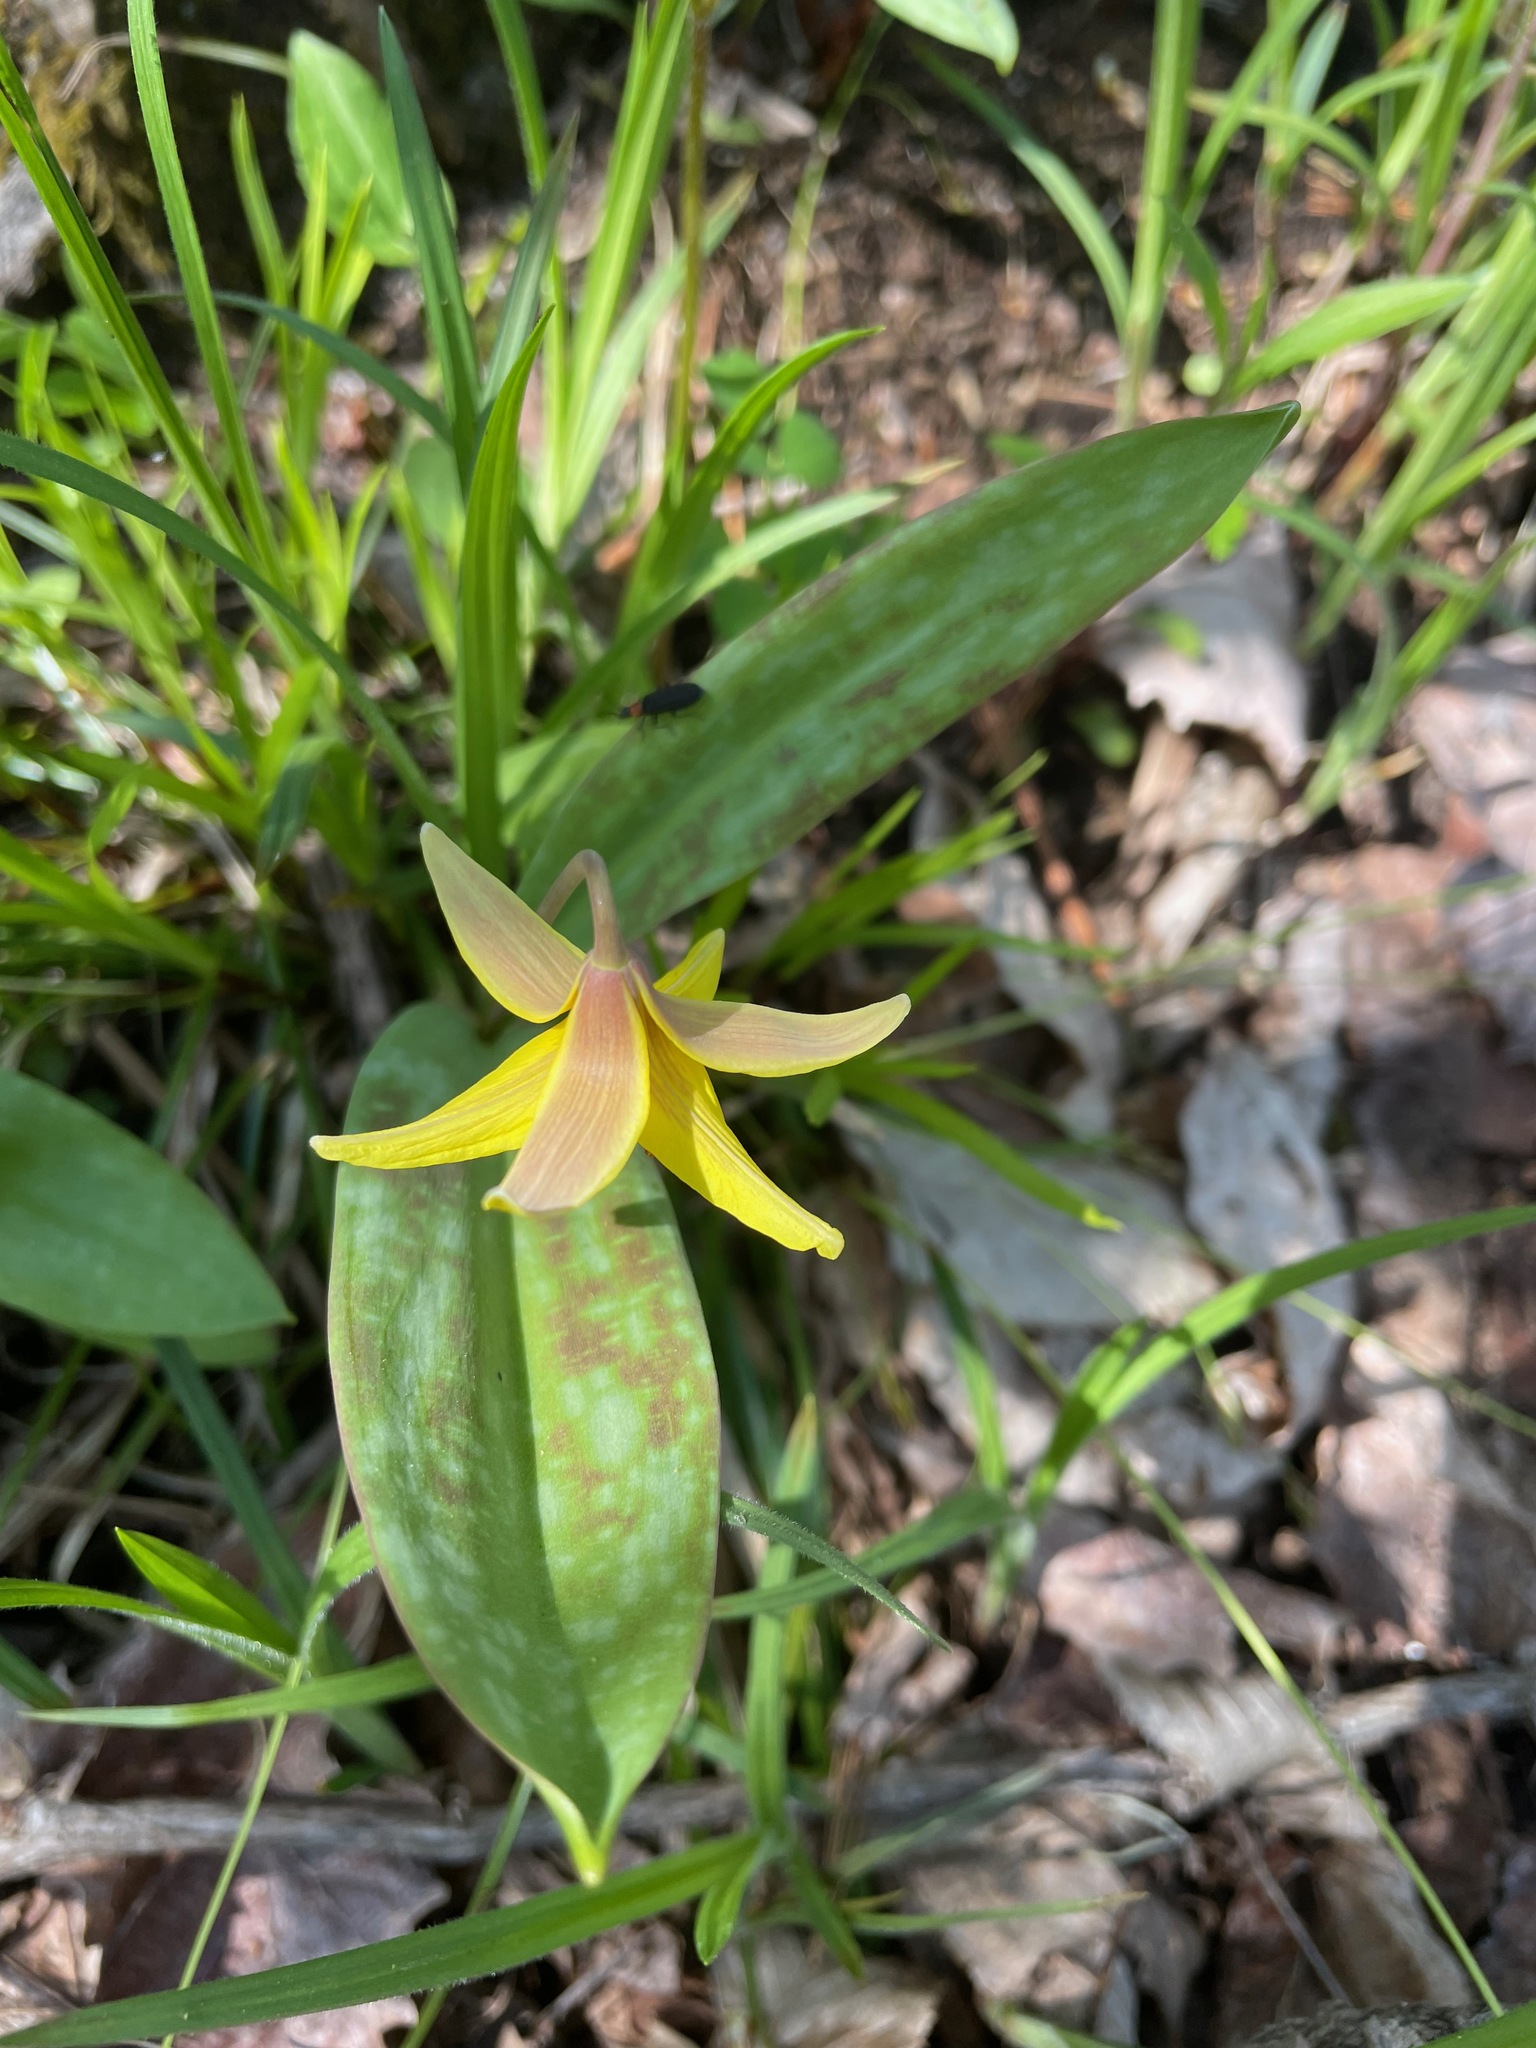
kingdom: Plantae
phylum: Tracheophyta
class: Liliopsida
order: Liliales
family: Liliaceae
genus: Erythronium
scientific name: Erythronium americanum
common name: Yellow adder's-tongue
